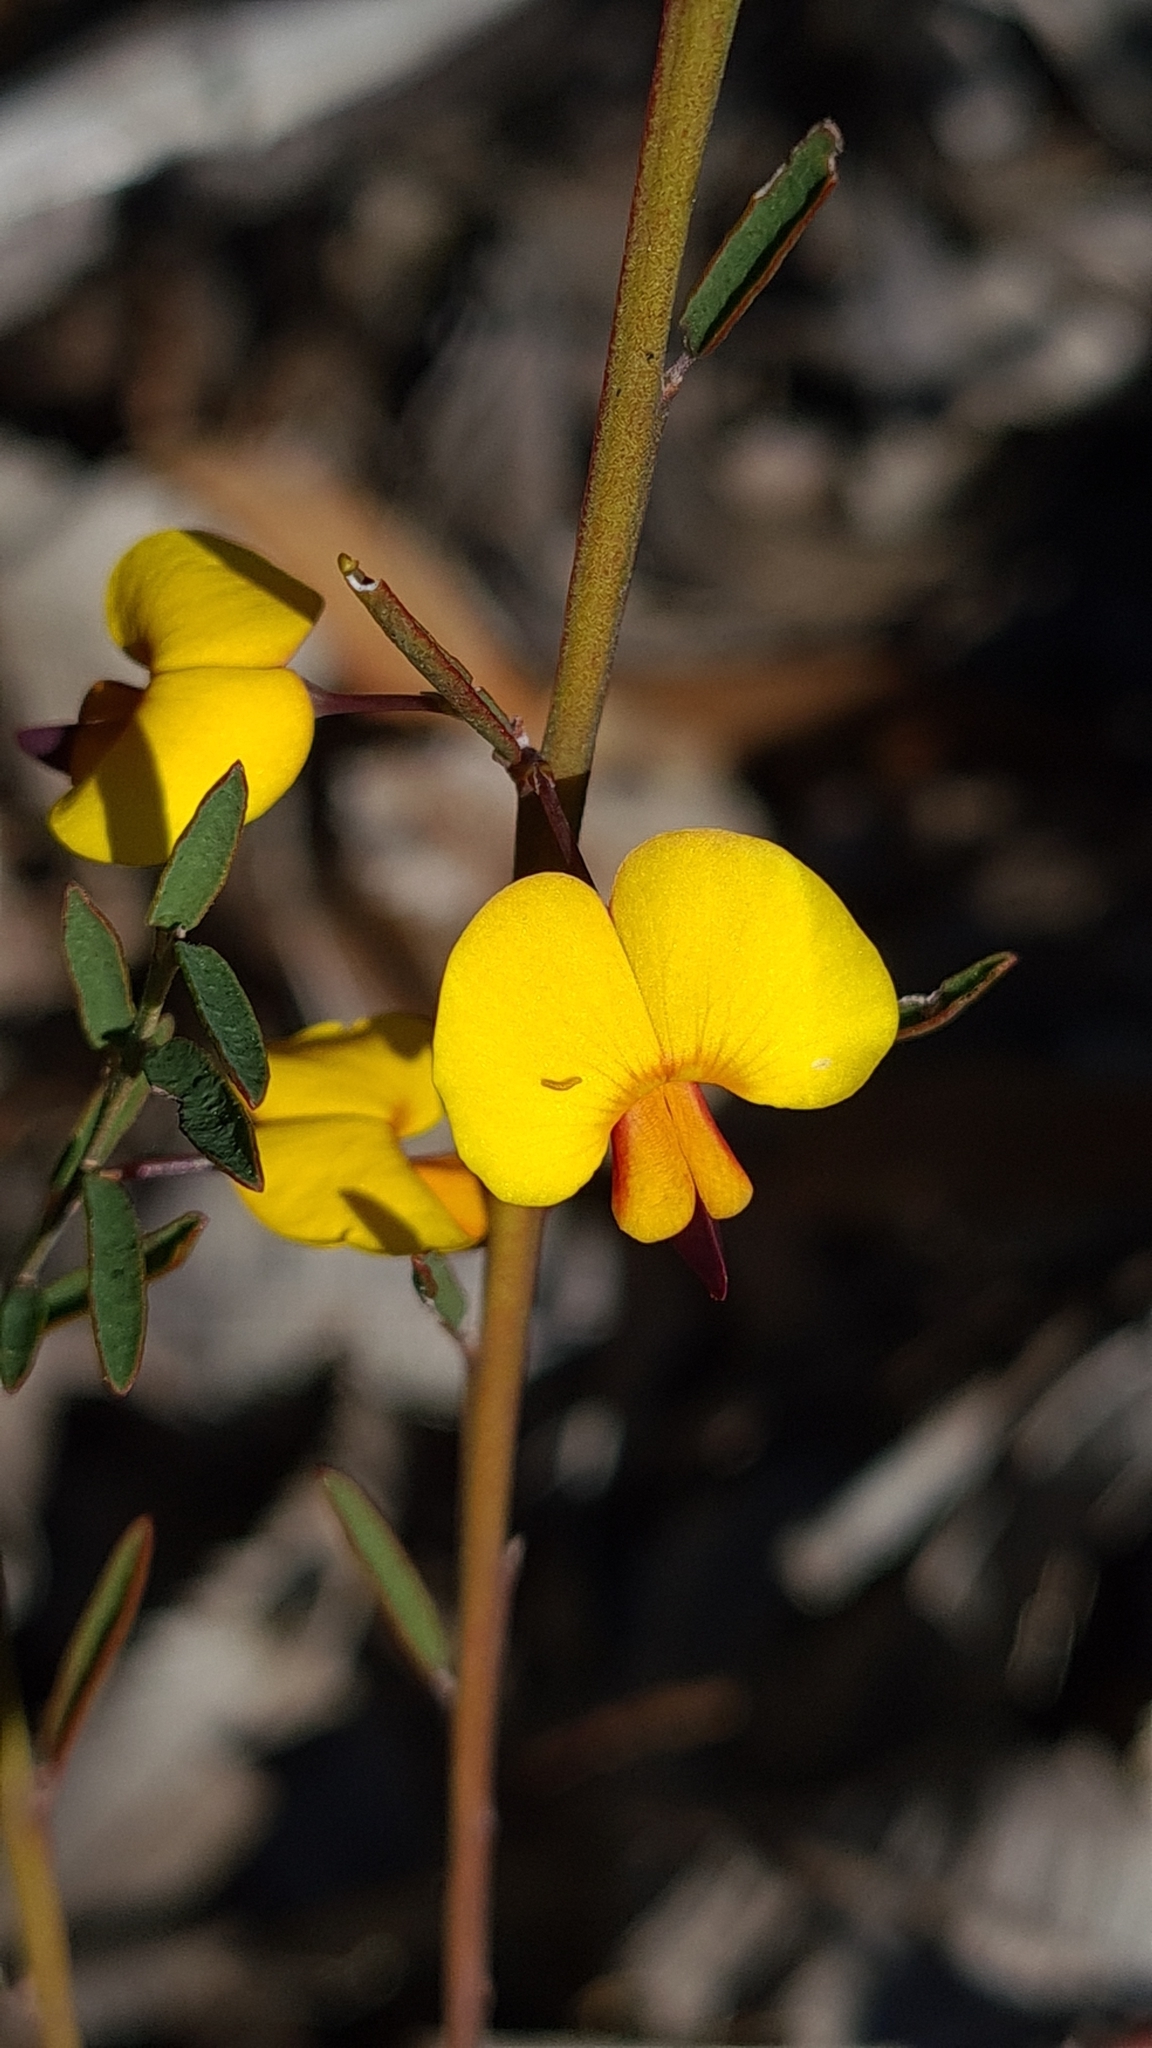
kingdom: Plantae
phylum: Tracheophyta
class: Magnoliopsida
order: Fabales
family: Fabaceae
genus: Bossiaea
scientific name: Bossiaea heterophylla
